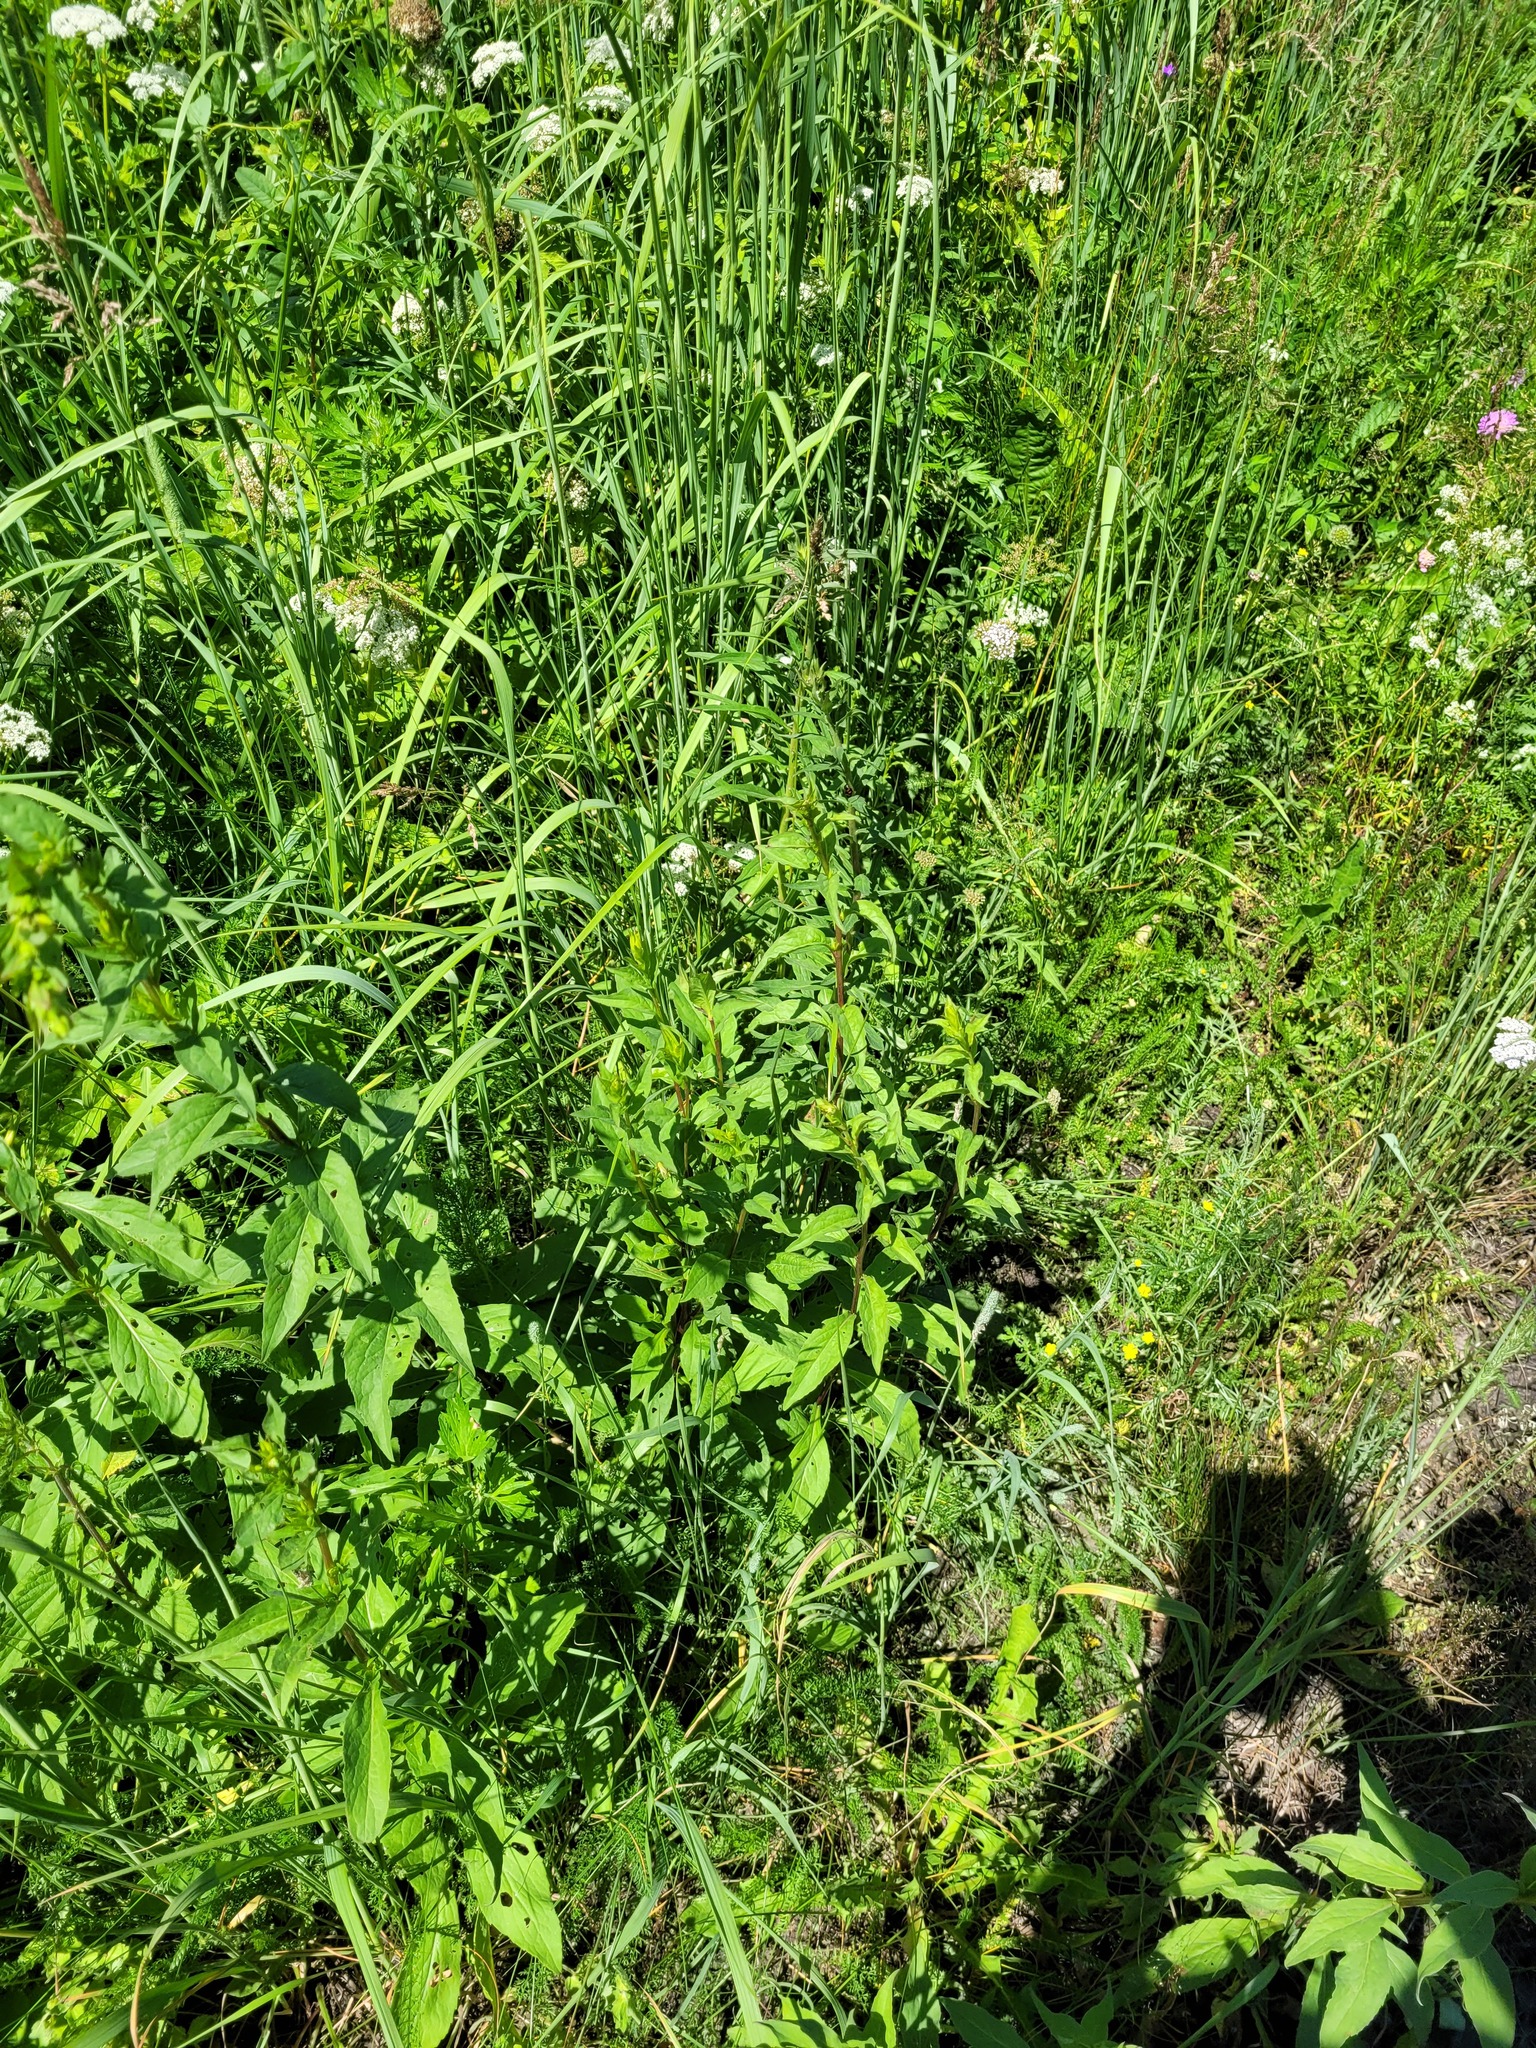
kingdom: Plantae
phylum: Tracheophyta
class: Magnoliopsida
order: Asterales
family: Asteraceae
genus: Solidago
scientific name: Solidago virgaurea
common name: Goldenrod
